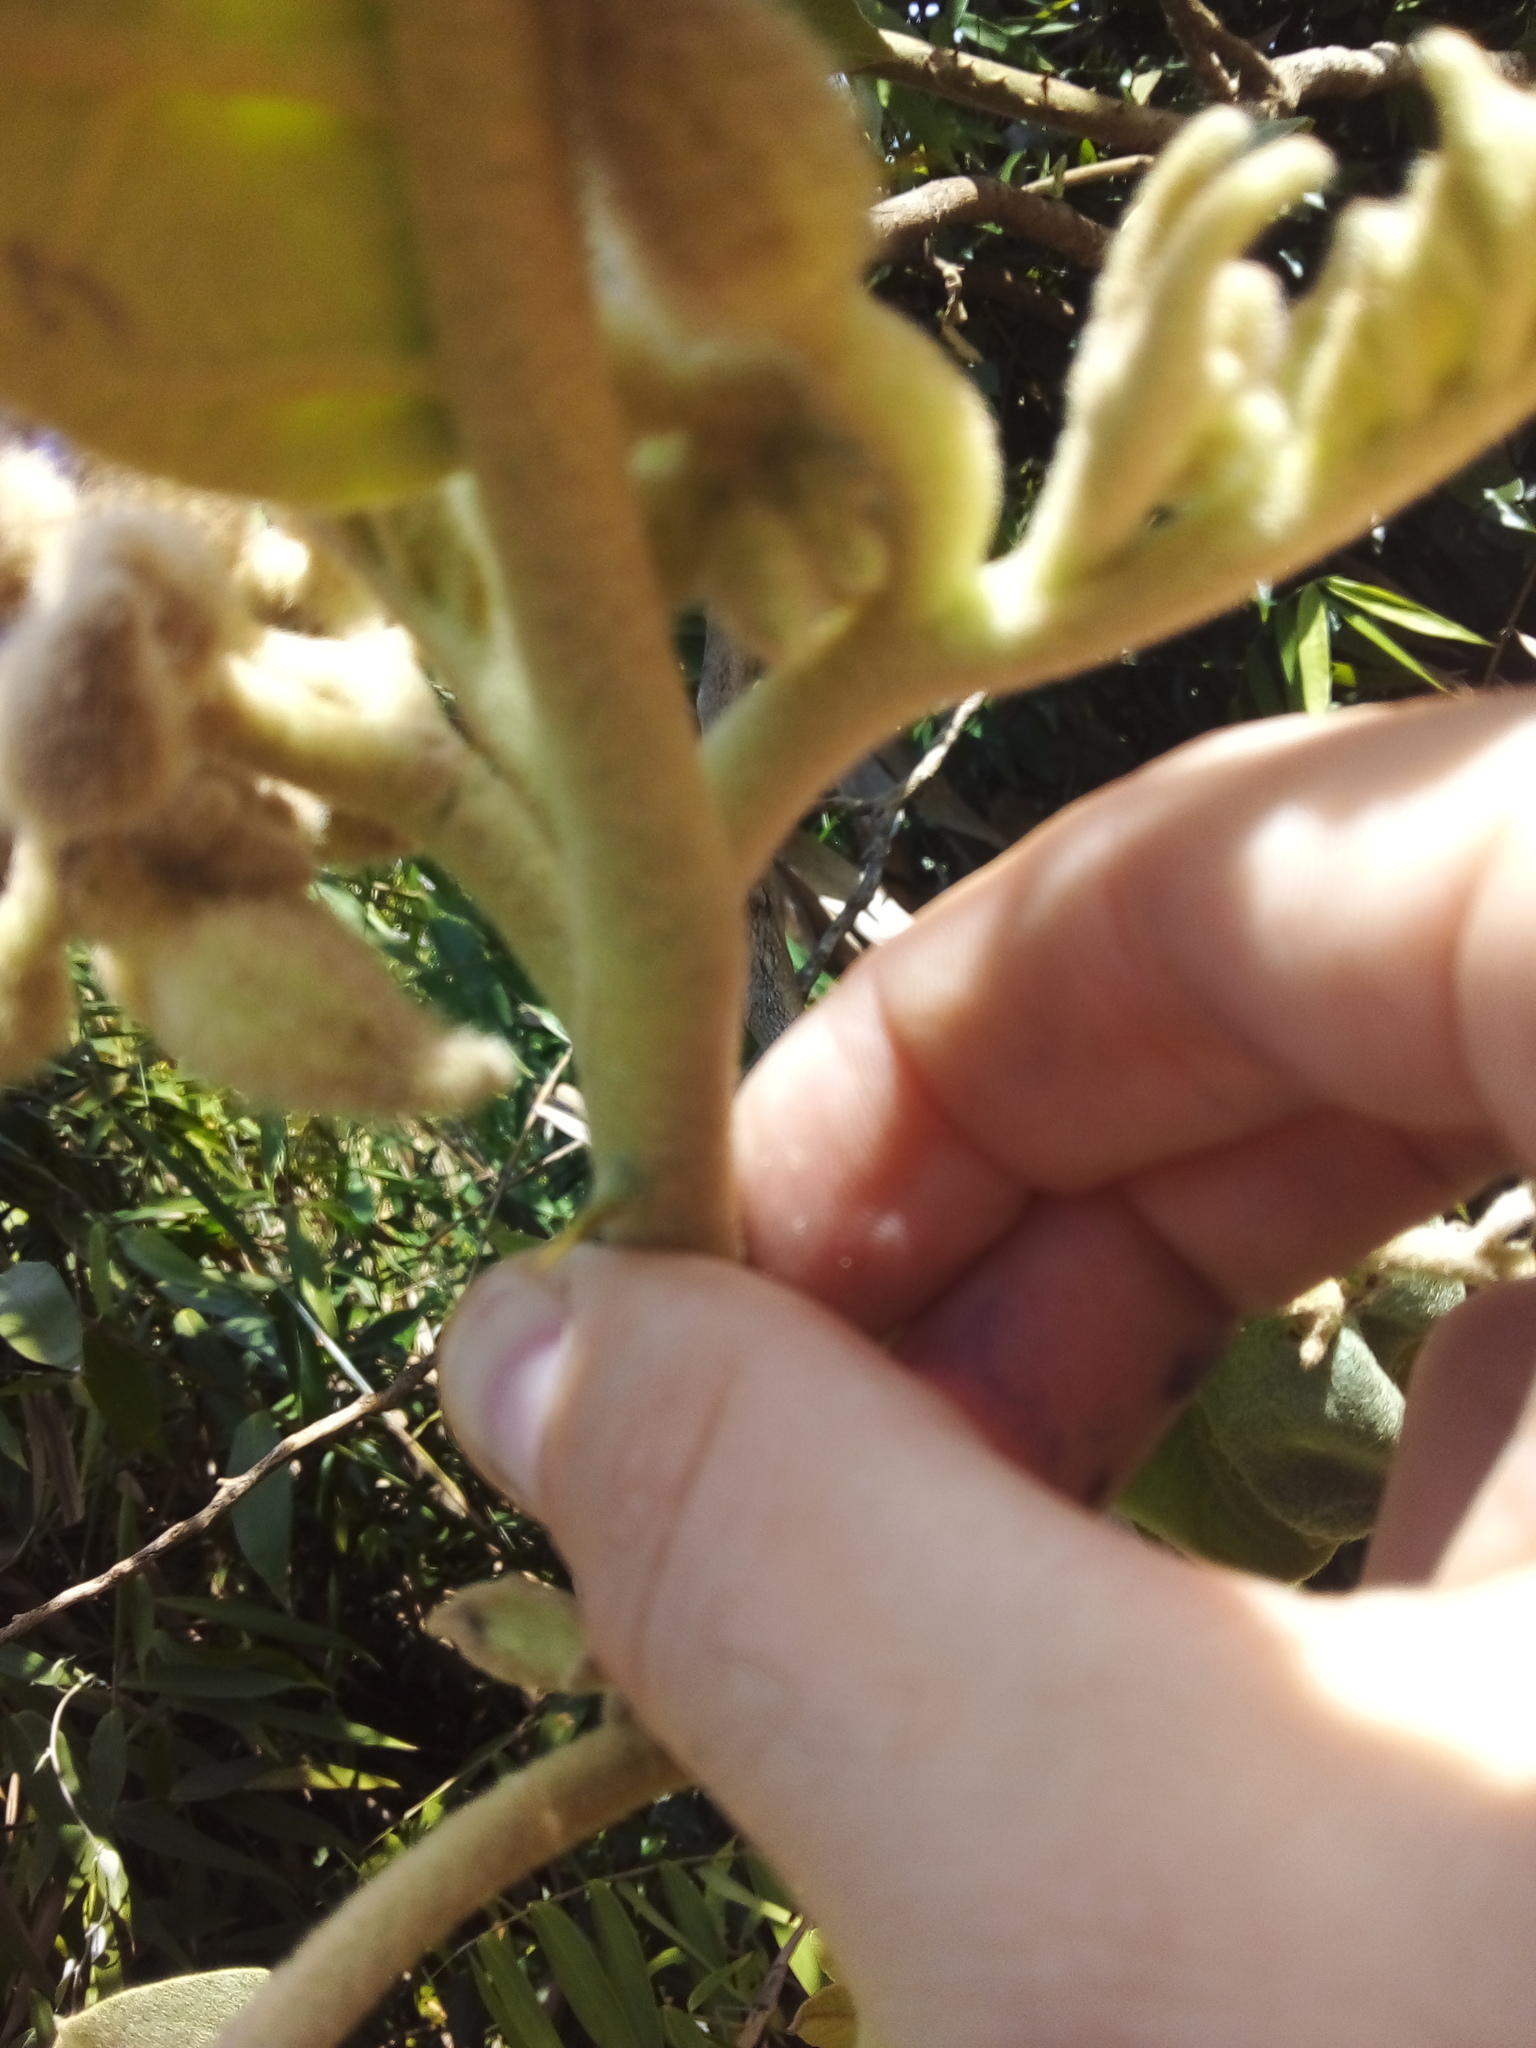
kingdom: Plantae
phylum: Tracheophyta
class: Magnoliopsida
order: Solanales
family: Solanaceae
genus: Solanum
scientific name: Solanum crinitum
